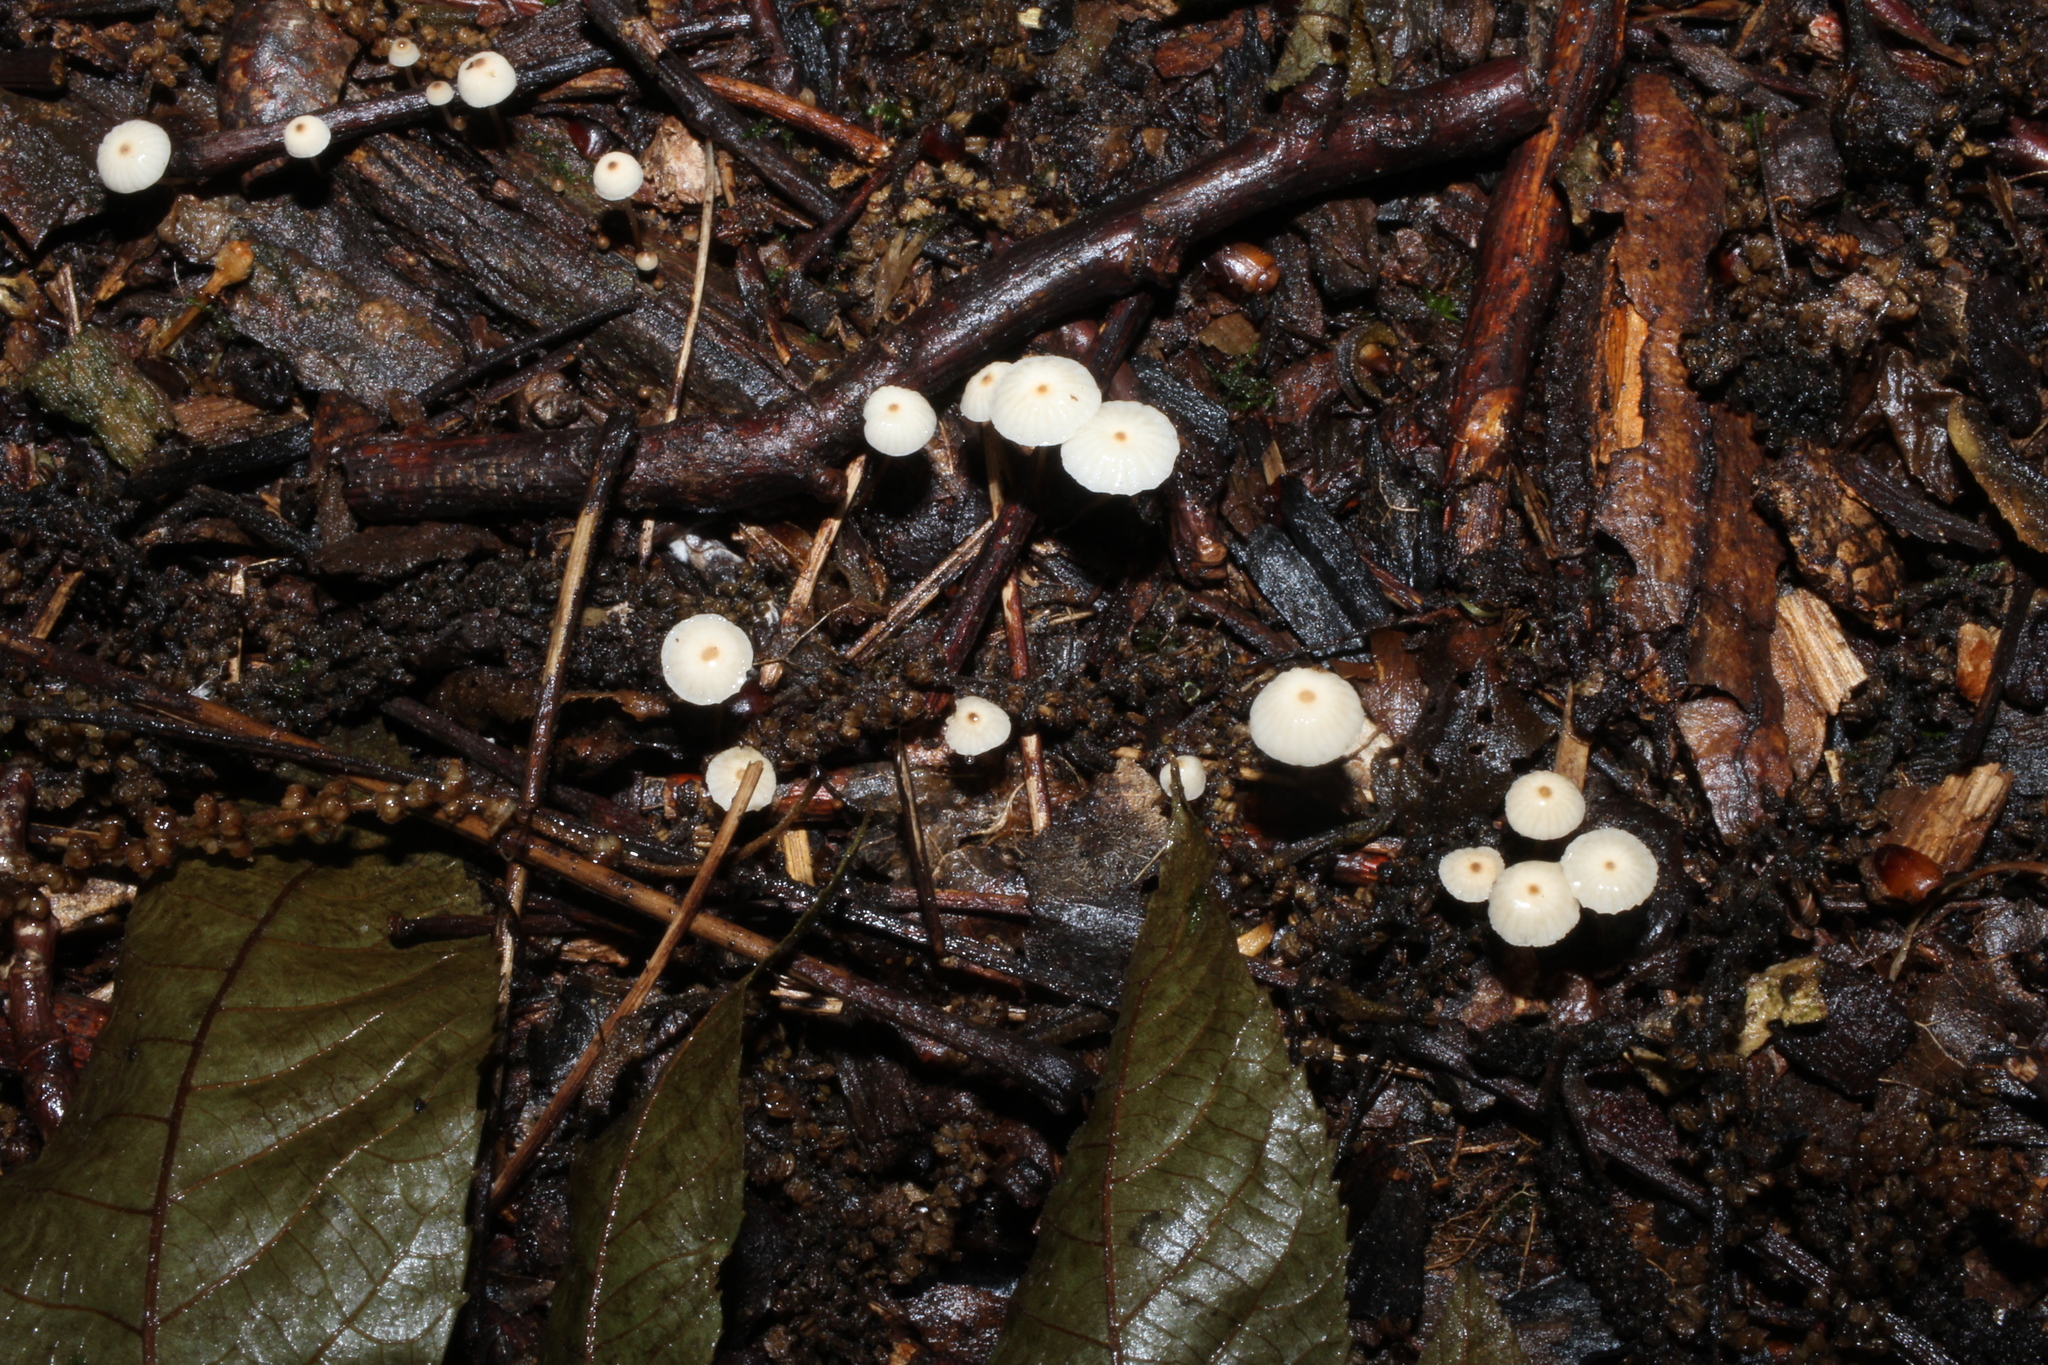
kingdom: Fungi
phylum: Basidiomycota
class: Agaricomycetes
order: Agaricales
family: Marasmiaceae
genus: Marasmius
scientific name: Marasmius capillaris
